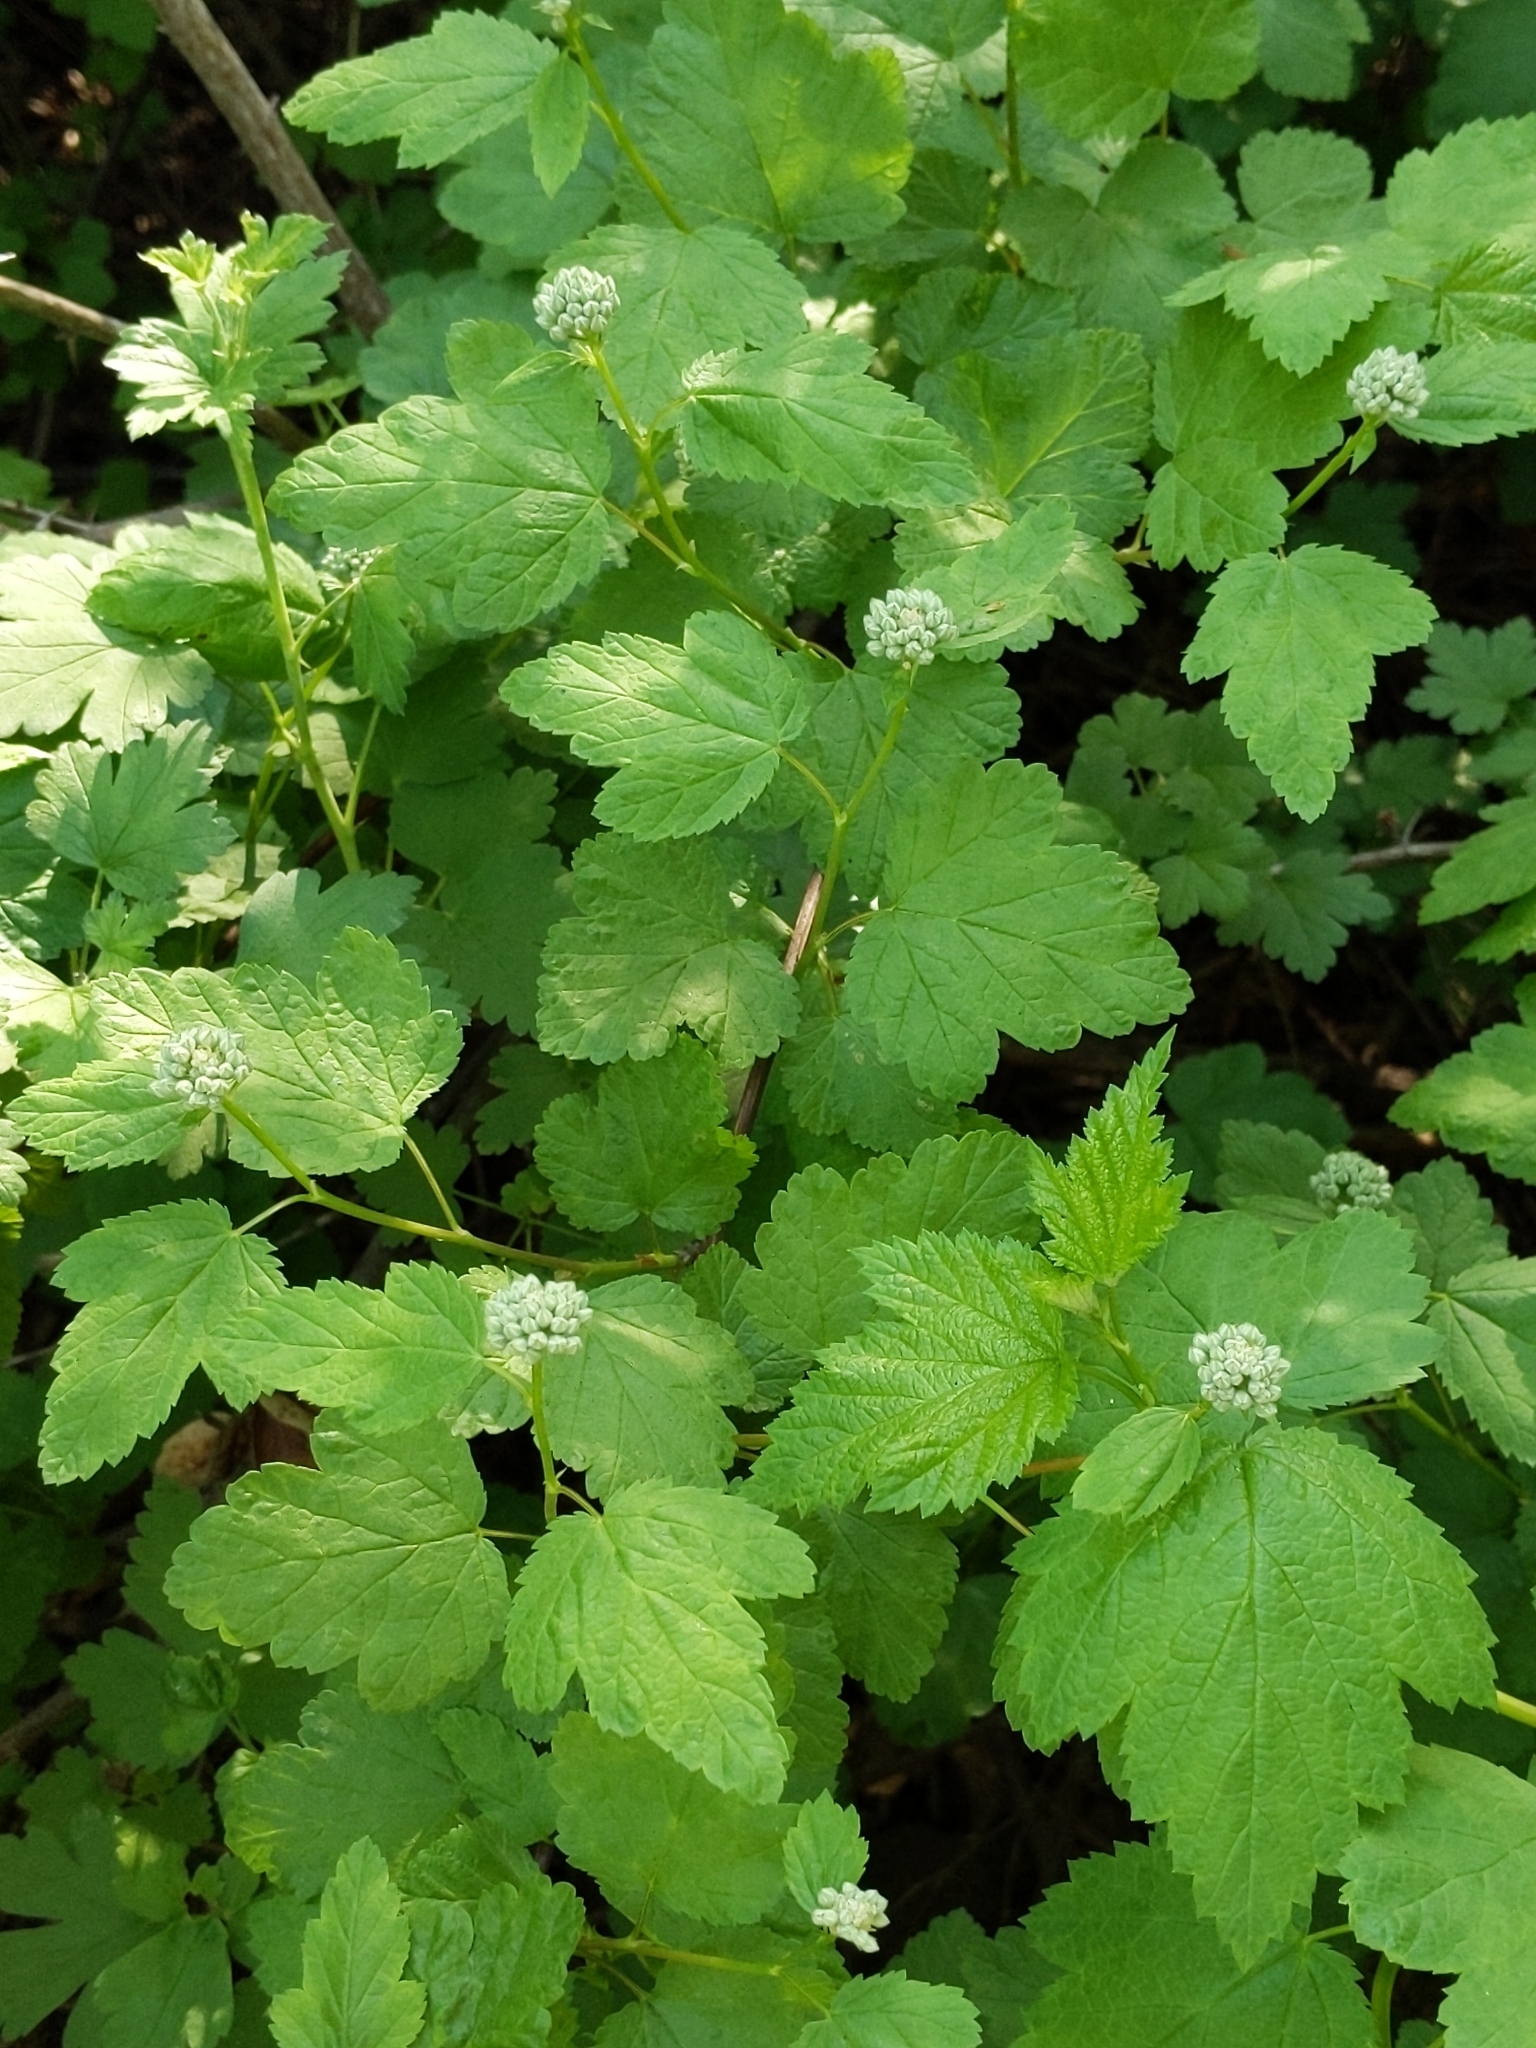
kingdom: Plantae
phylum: Tracheophyta
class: Magnoliopsida
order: Rosales
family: Rosaceae
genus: Physocarpus
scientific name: Physocarpus capitatus
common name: Pacific ninebark
